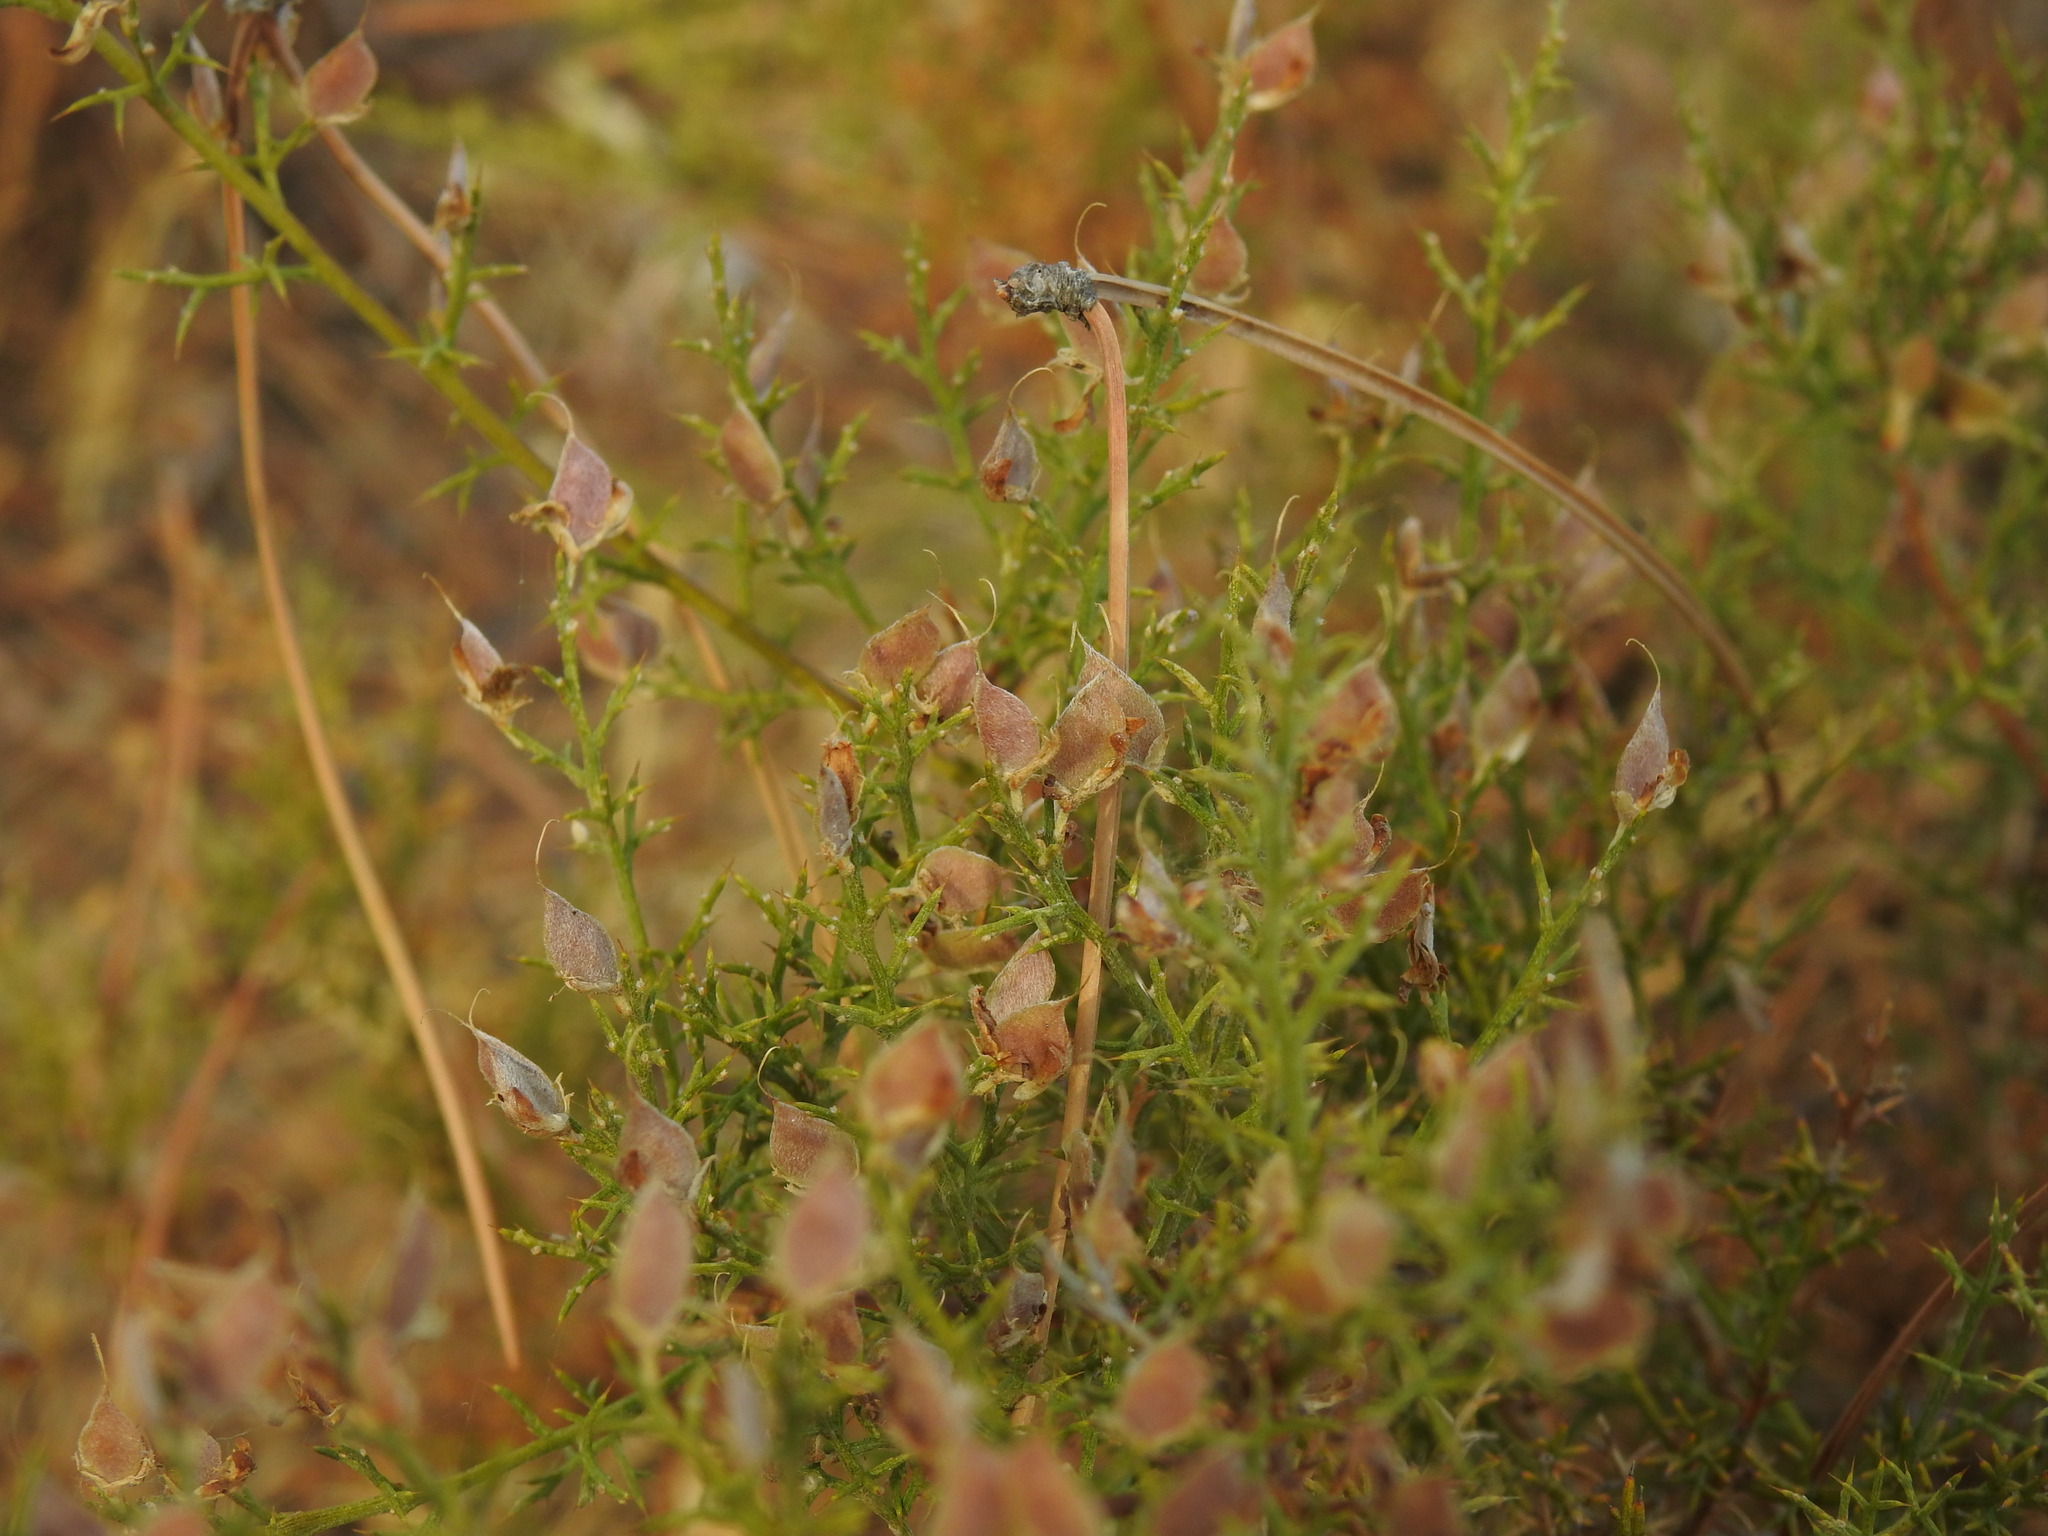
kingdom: Plantae
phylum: Tracheophyta
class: Magnoliopsida
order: Fabales
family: Fabaceae
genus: Stauracanthus
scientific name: Stauracanthus boivinii
